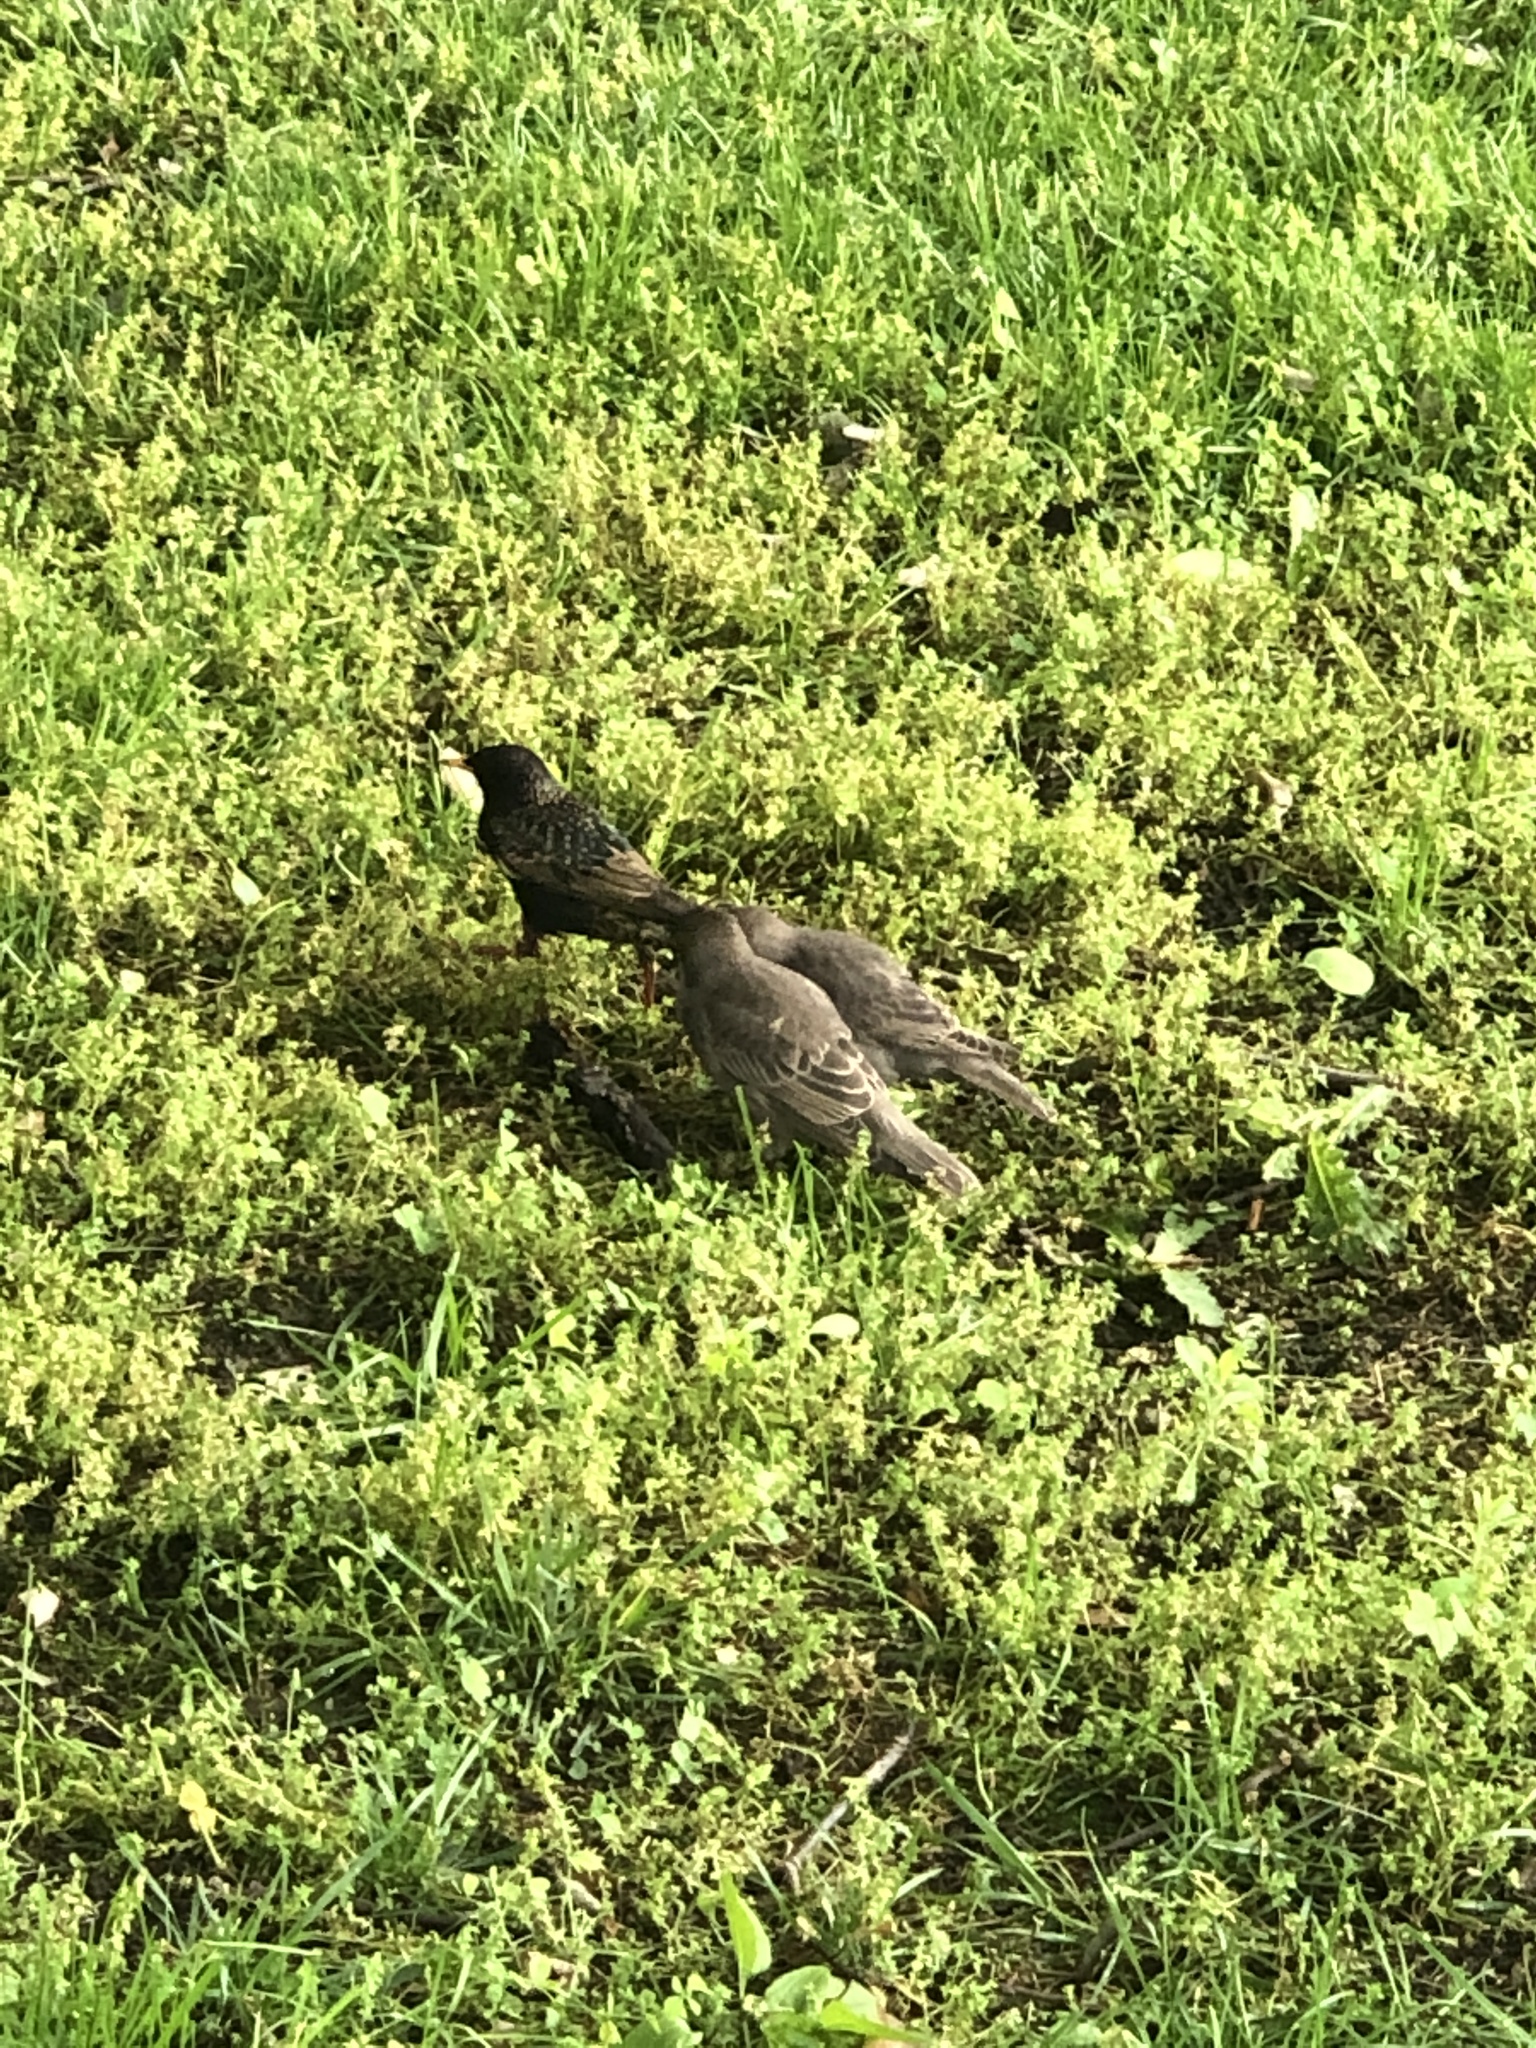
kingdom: Animalia
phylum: Chordata
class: Aves
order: Passeriformes
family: Sturnidae
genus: Sturnus
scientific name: Sturnus vulgaris
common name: Common starling
